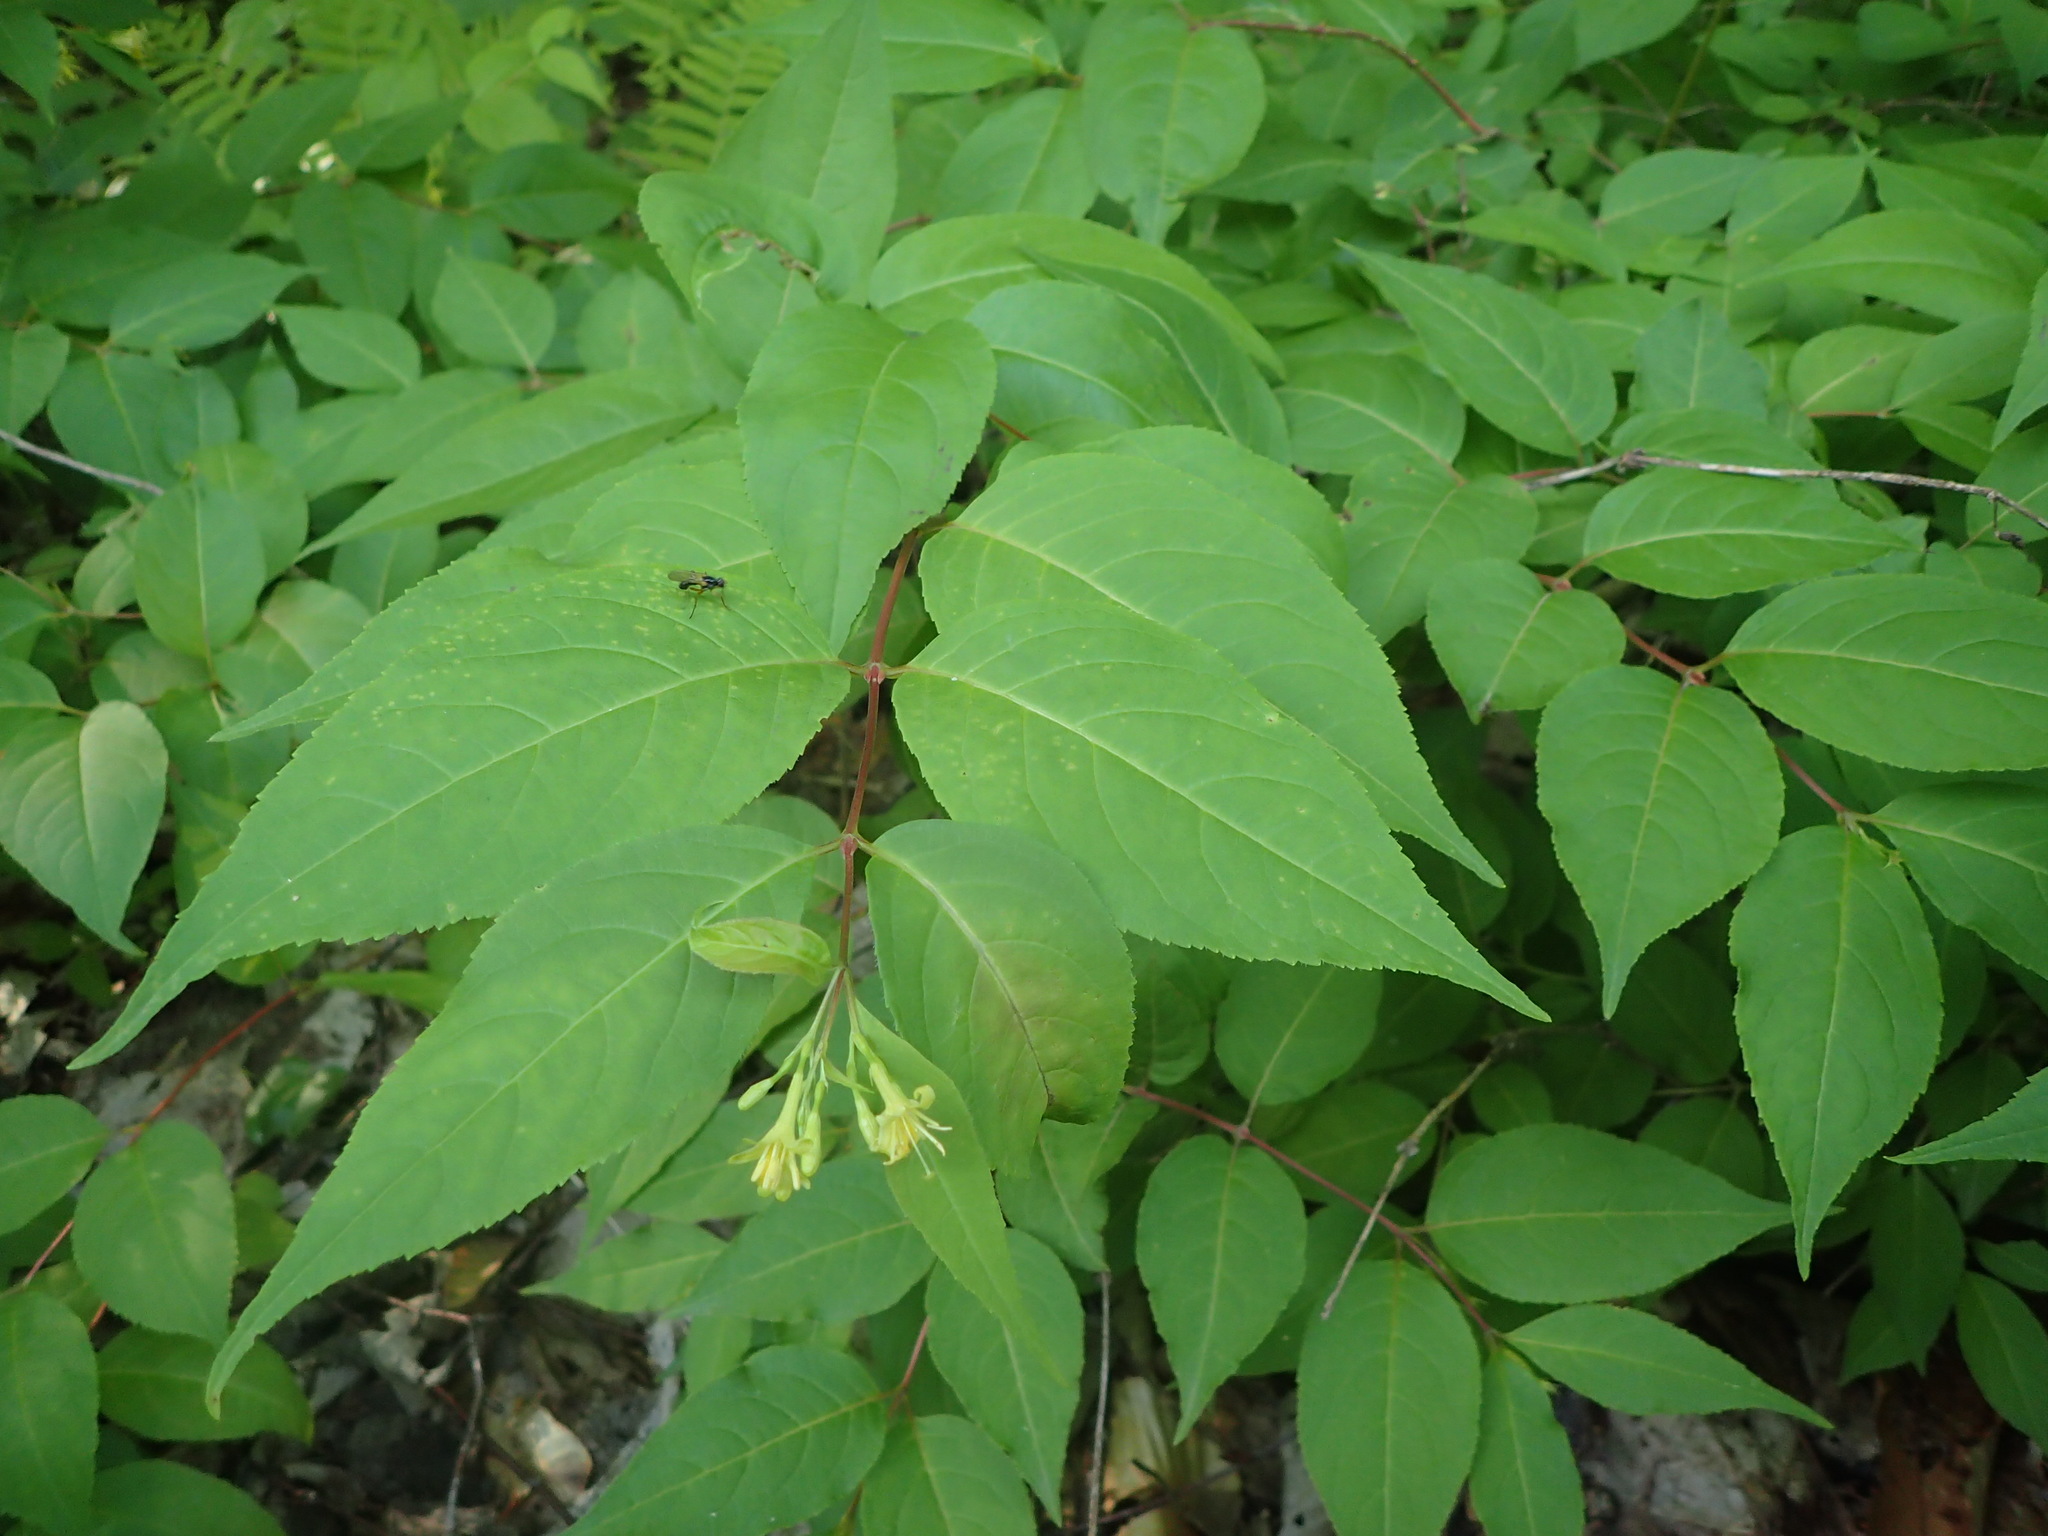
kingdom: Plantae
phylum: Tracheophyta
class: Magnoliopsida
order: Dipsacales
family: Caprifoliaceae
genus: Diervilla
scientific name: Diervilla lonicera
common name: Bush-honeysuckle
